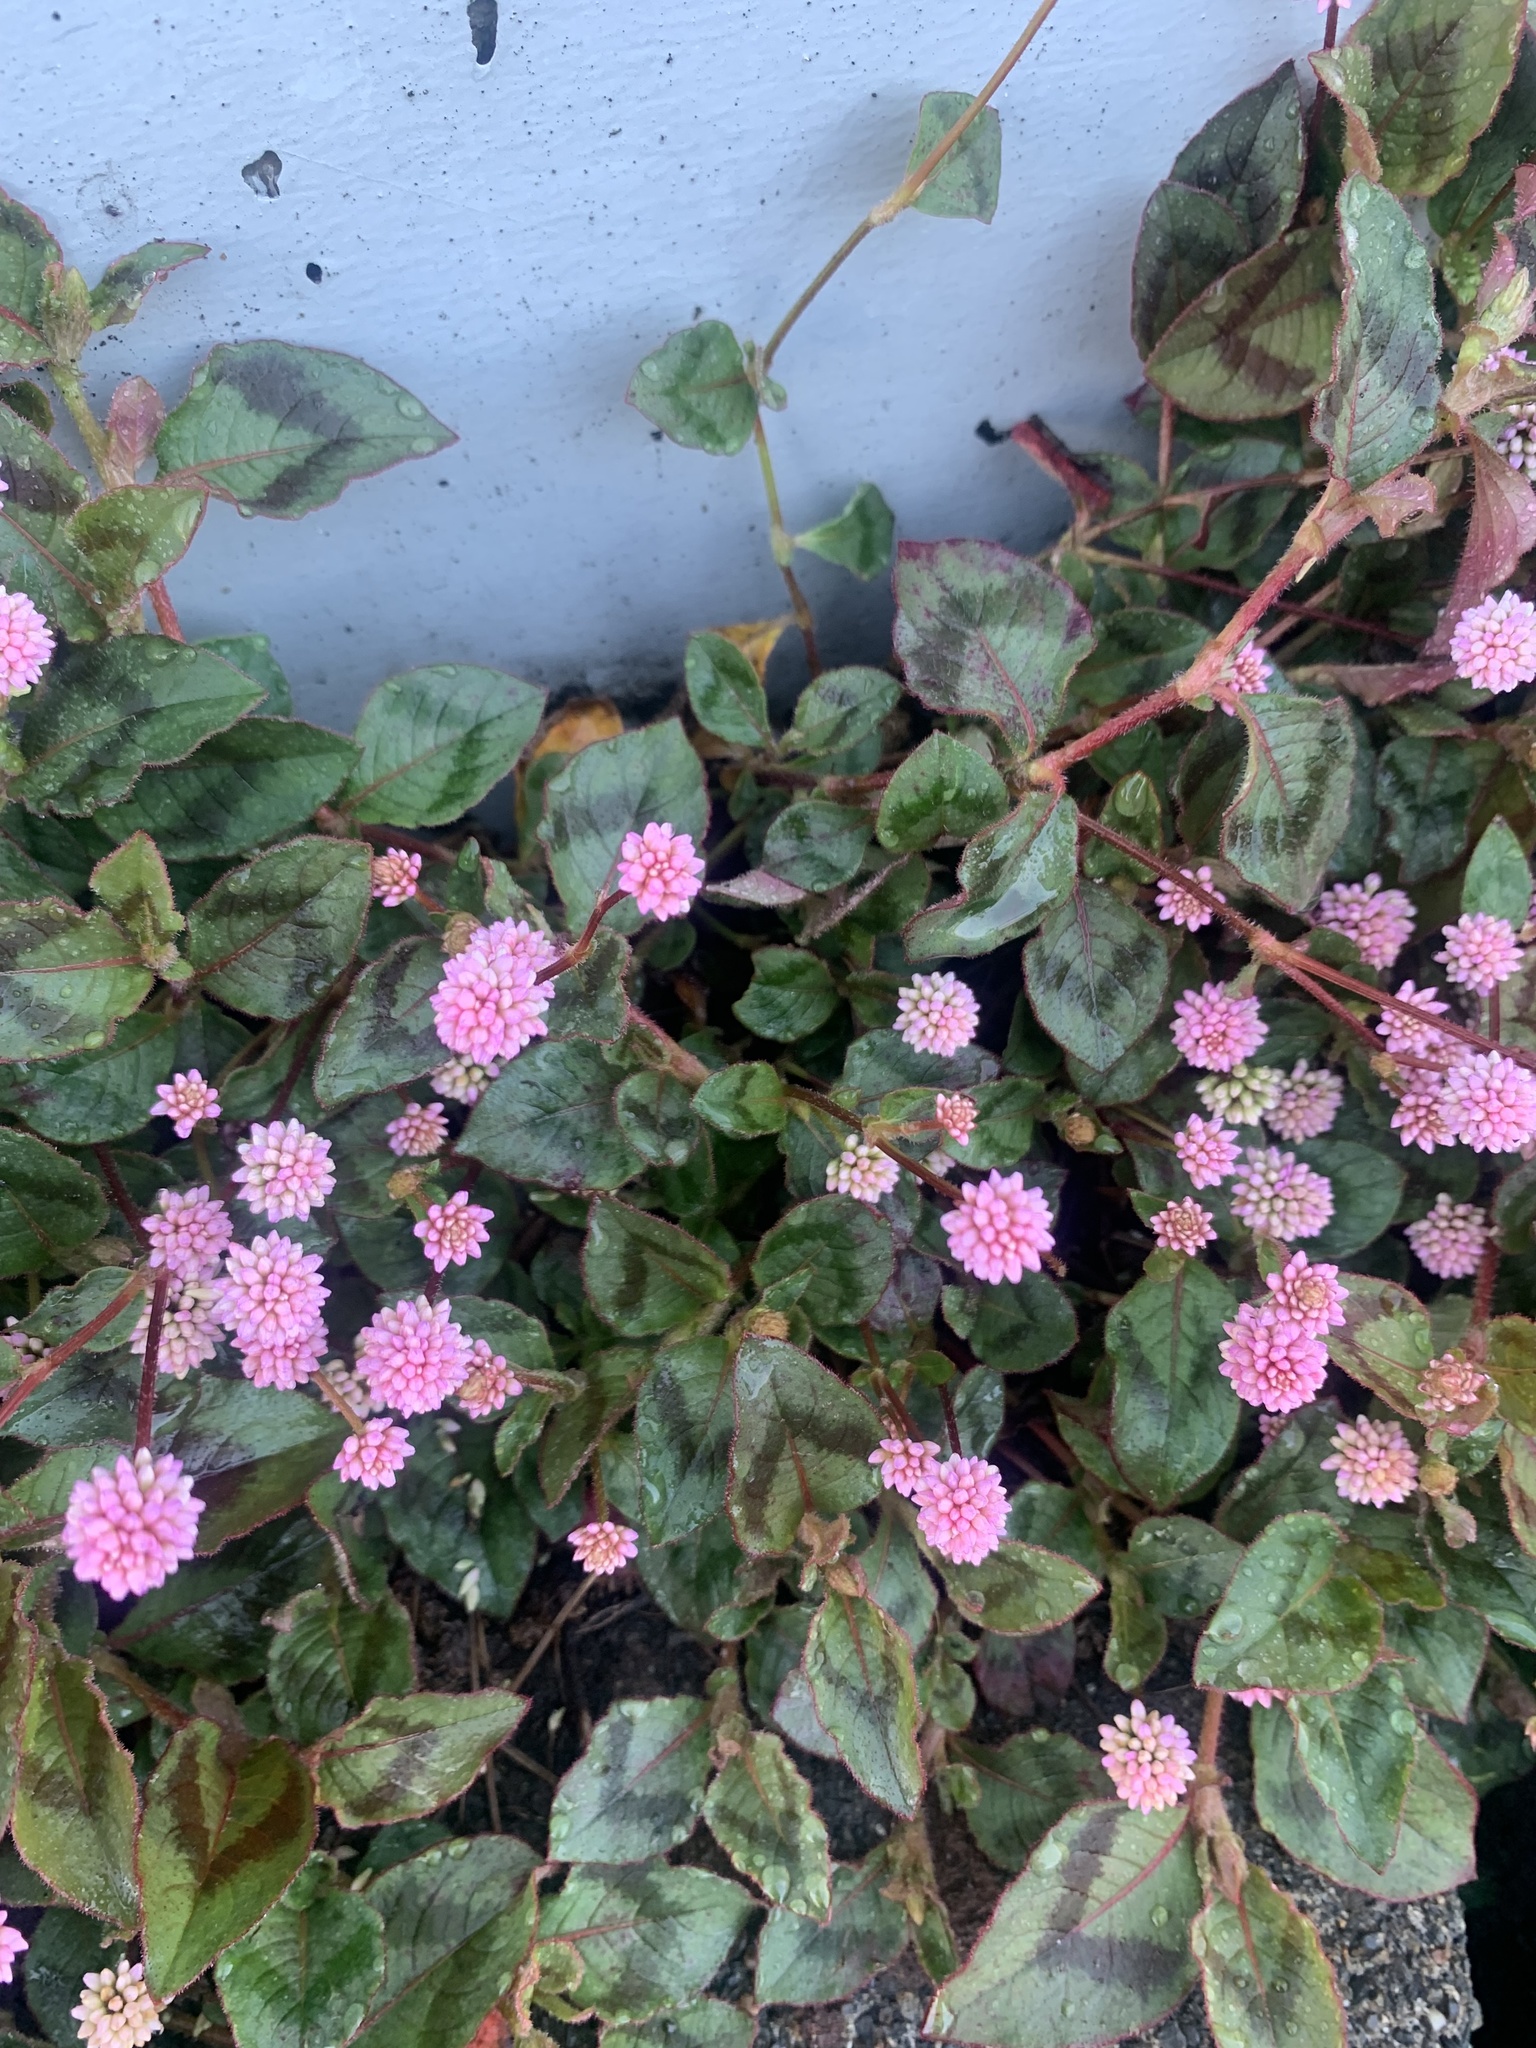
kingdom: Plantae
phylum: Tracheophyta
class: Magnoliopsida
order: Caryophyllales
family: Polygonaceae
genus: Persicaria
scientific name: Persicaria capitata
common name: Pinkhead smartweed
